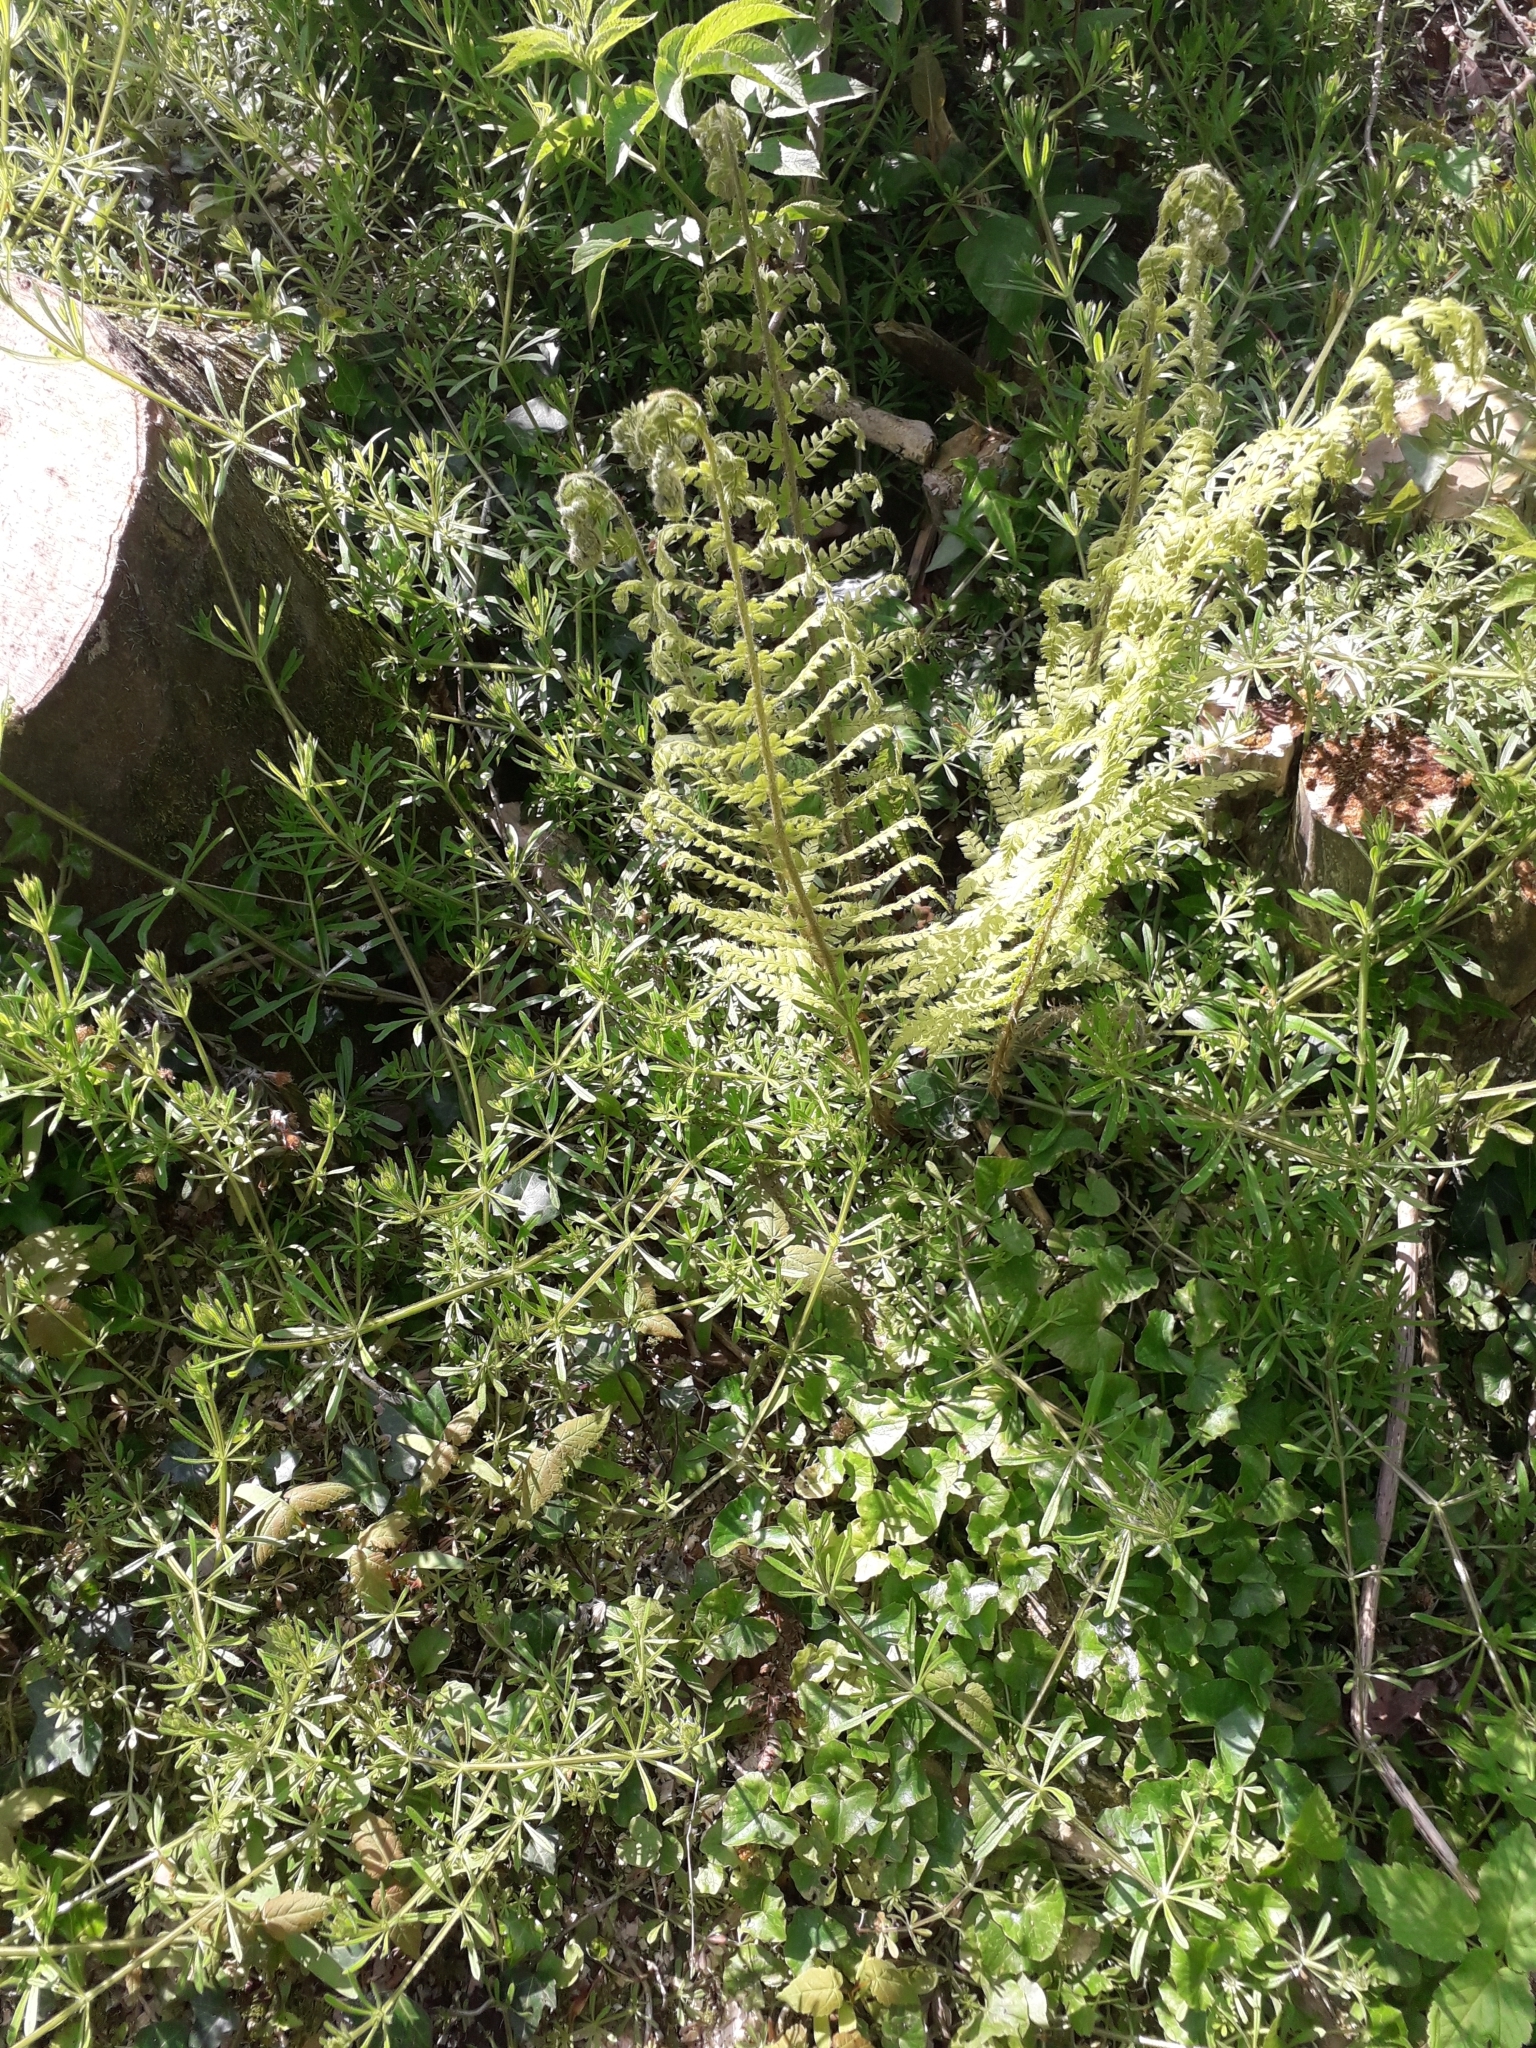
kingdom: Plantae
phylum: Tracheophyta
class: Polypodiopsida
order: Polypodiales
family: Dryopteridaceae
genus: Polystichum
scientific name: Polystichum setiferum
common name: Soft shield-fern
